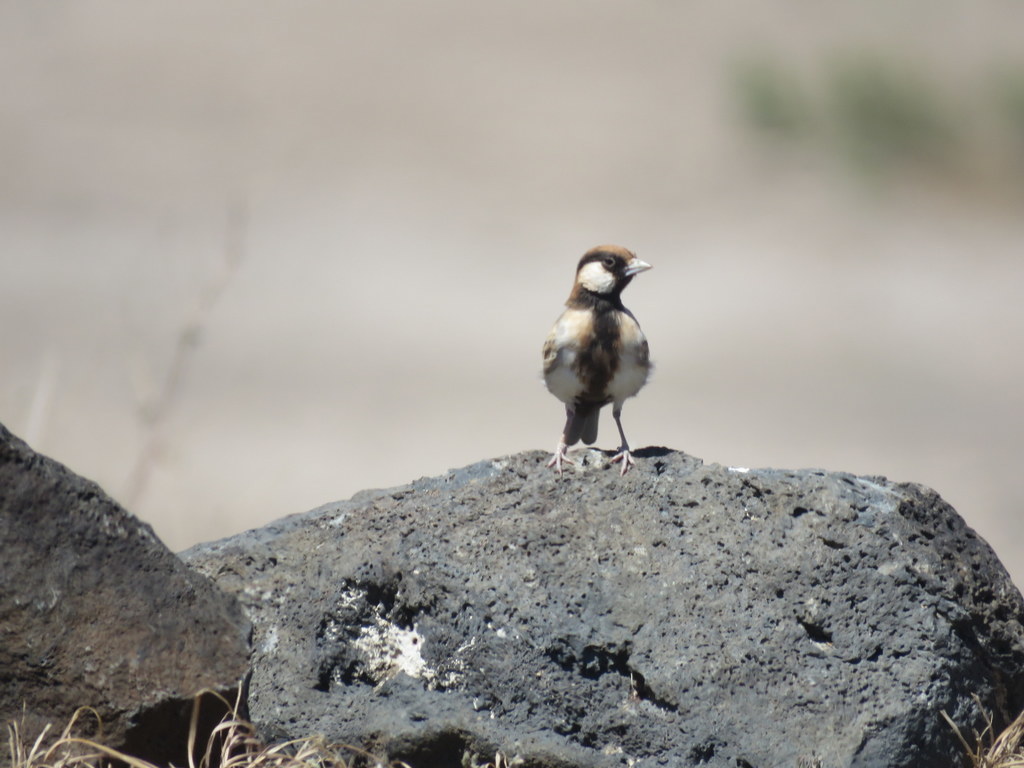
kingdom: Animalia
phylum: Chordata
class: Aves
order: Passeriformes
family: Alaudidae
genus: Eremopterix
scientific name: Eremopterix leucopareia
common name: Fischer's sparrow-lark
